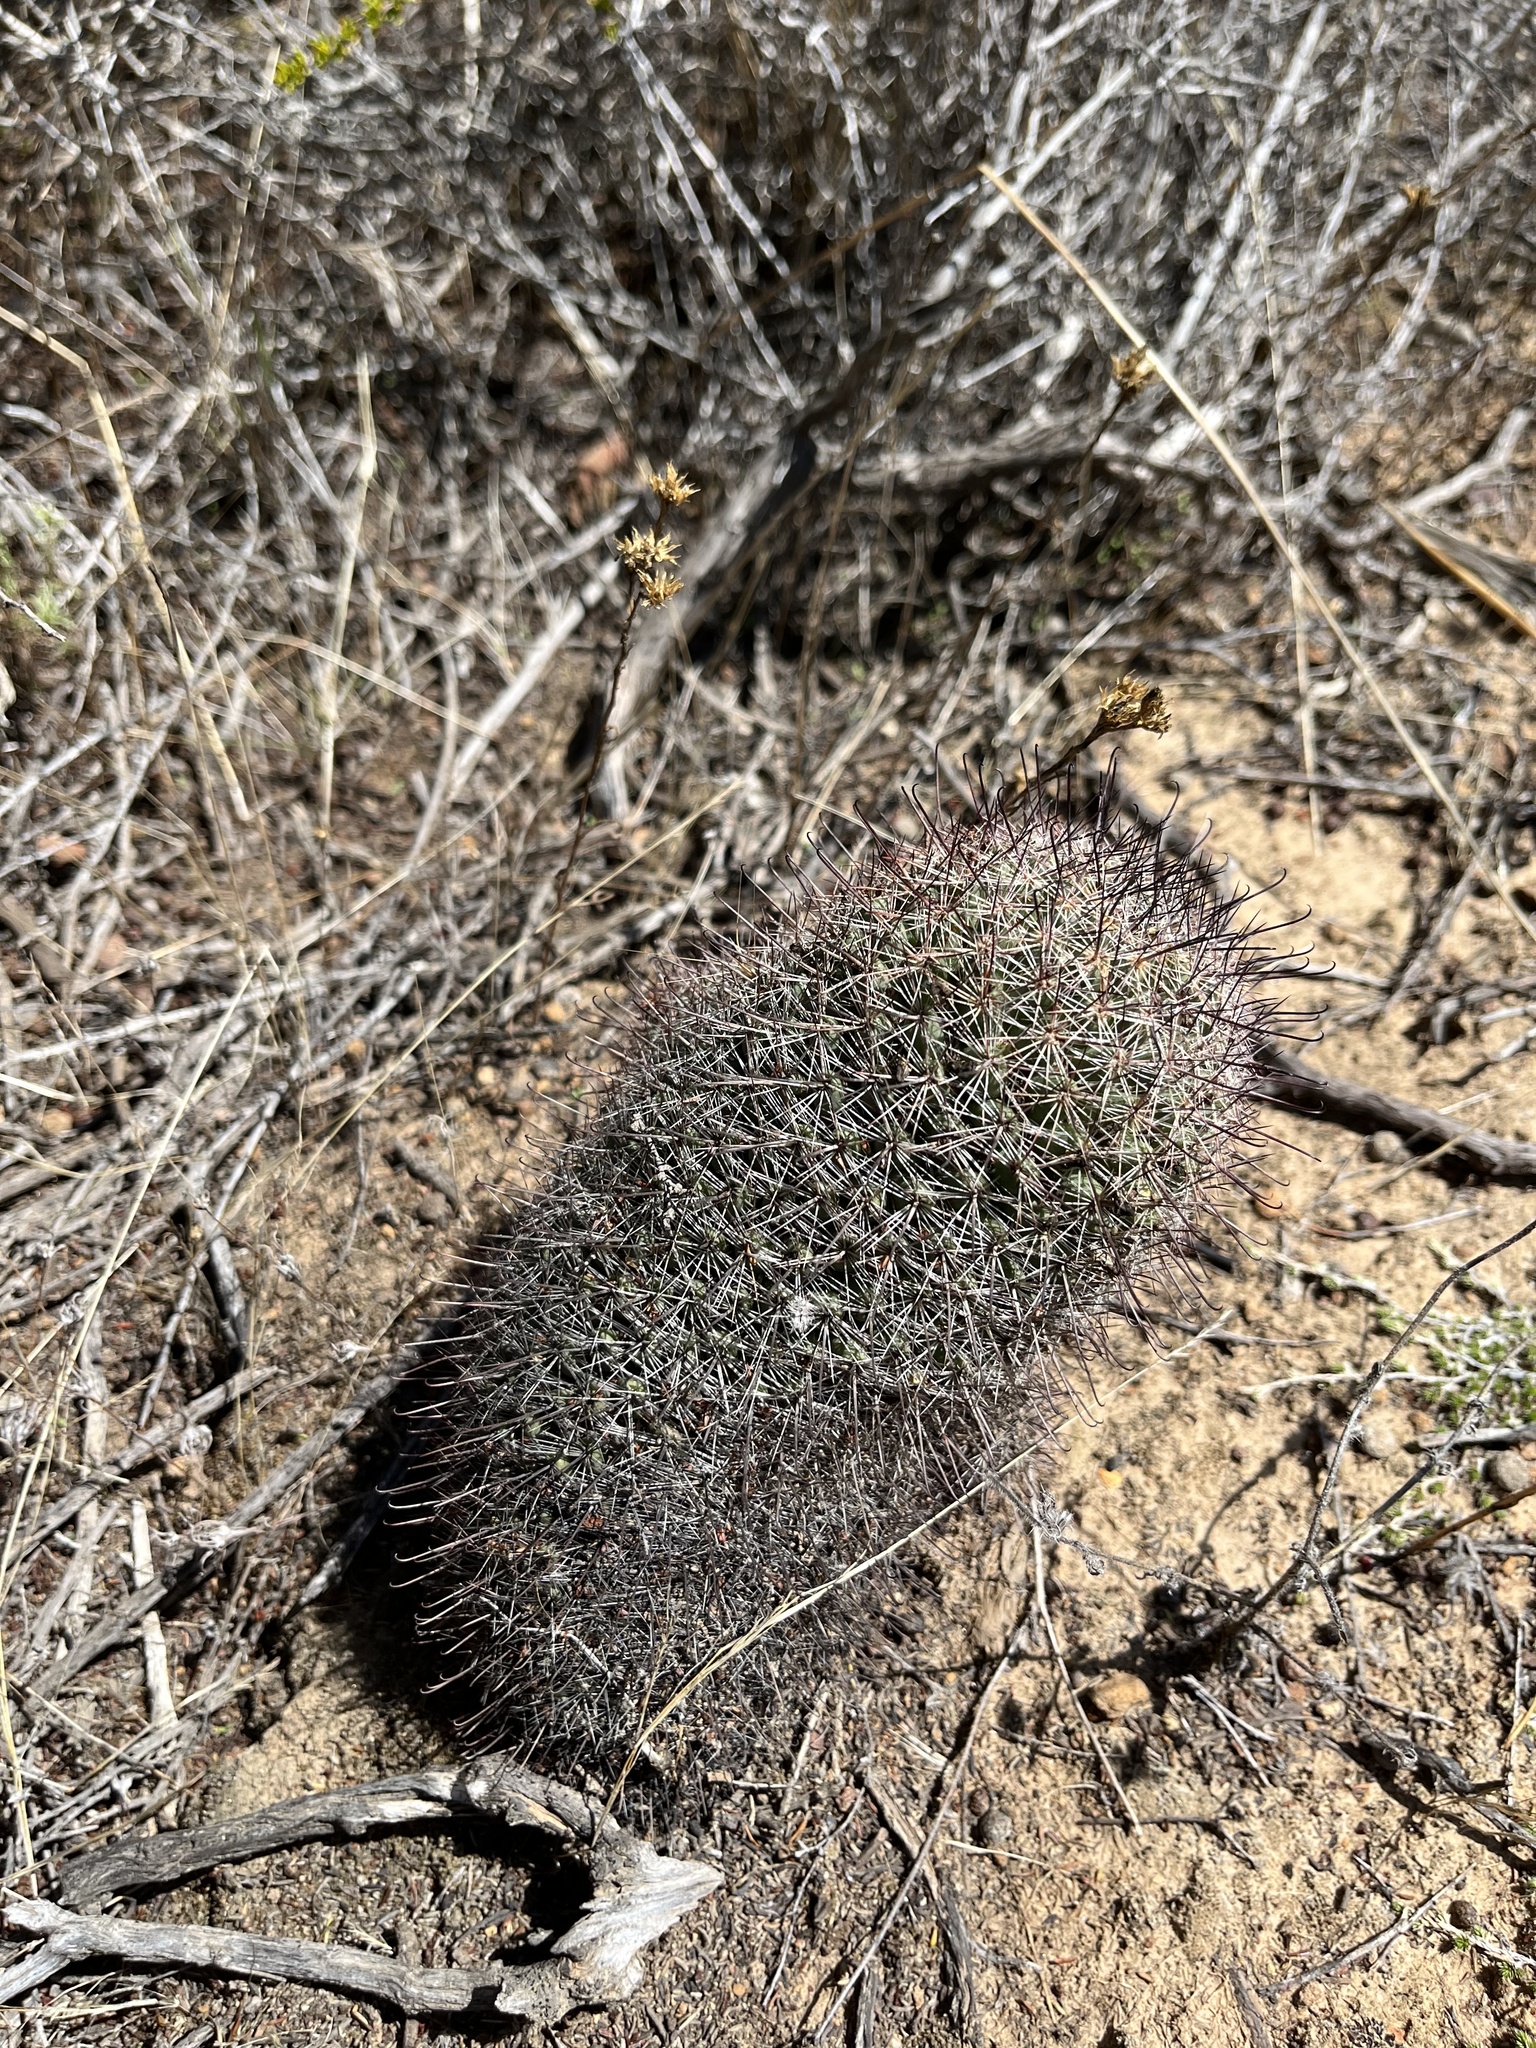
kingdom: Plantae
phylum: Tracheophyta
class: Magnoliopsida
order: Caryophyllales
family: Cactaceae
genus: Cochemiea
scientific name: Cochemiea dioica
